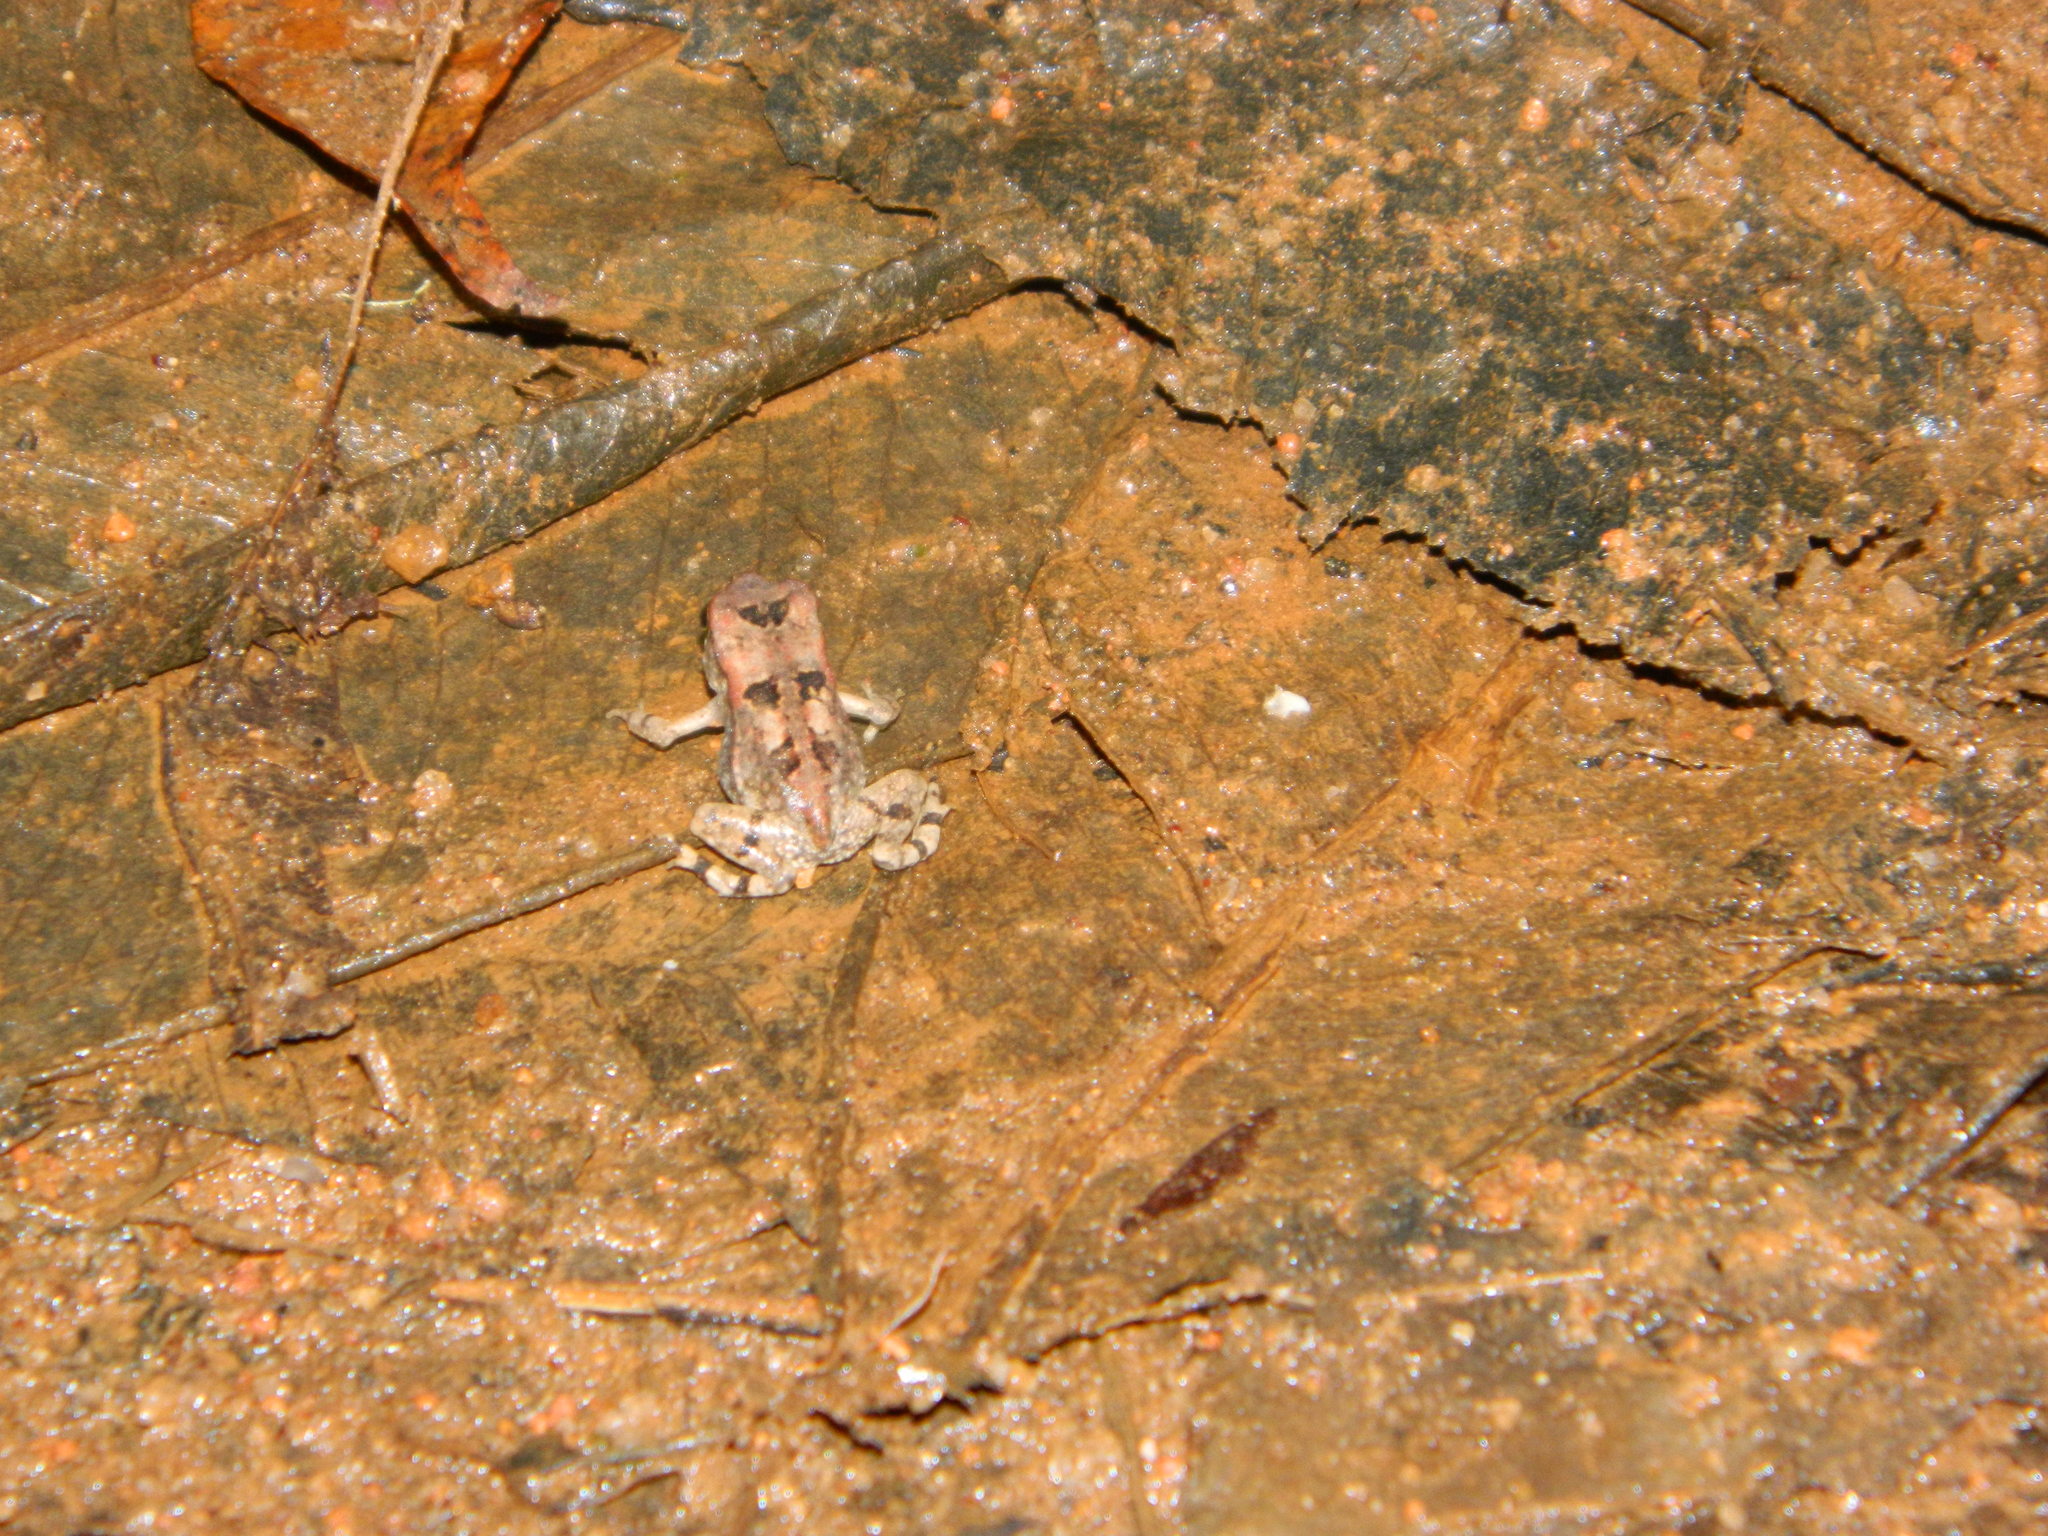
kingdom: Animalia
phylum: Chordata
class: Amphibia
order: Anura
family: Bufonidae
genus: Sclerophrys
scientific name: Sclerophrys brauni
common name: Braun's toad
